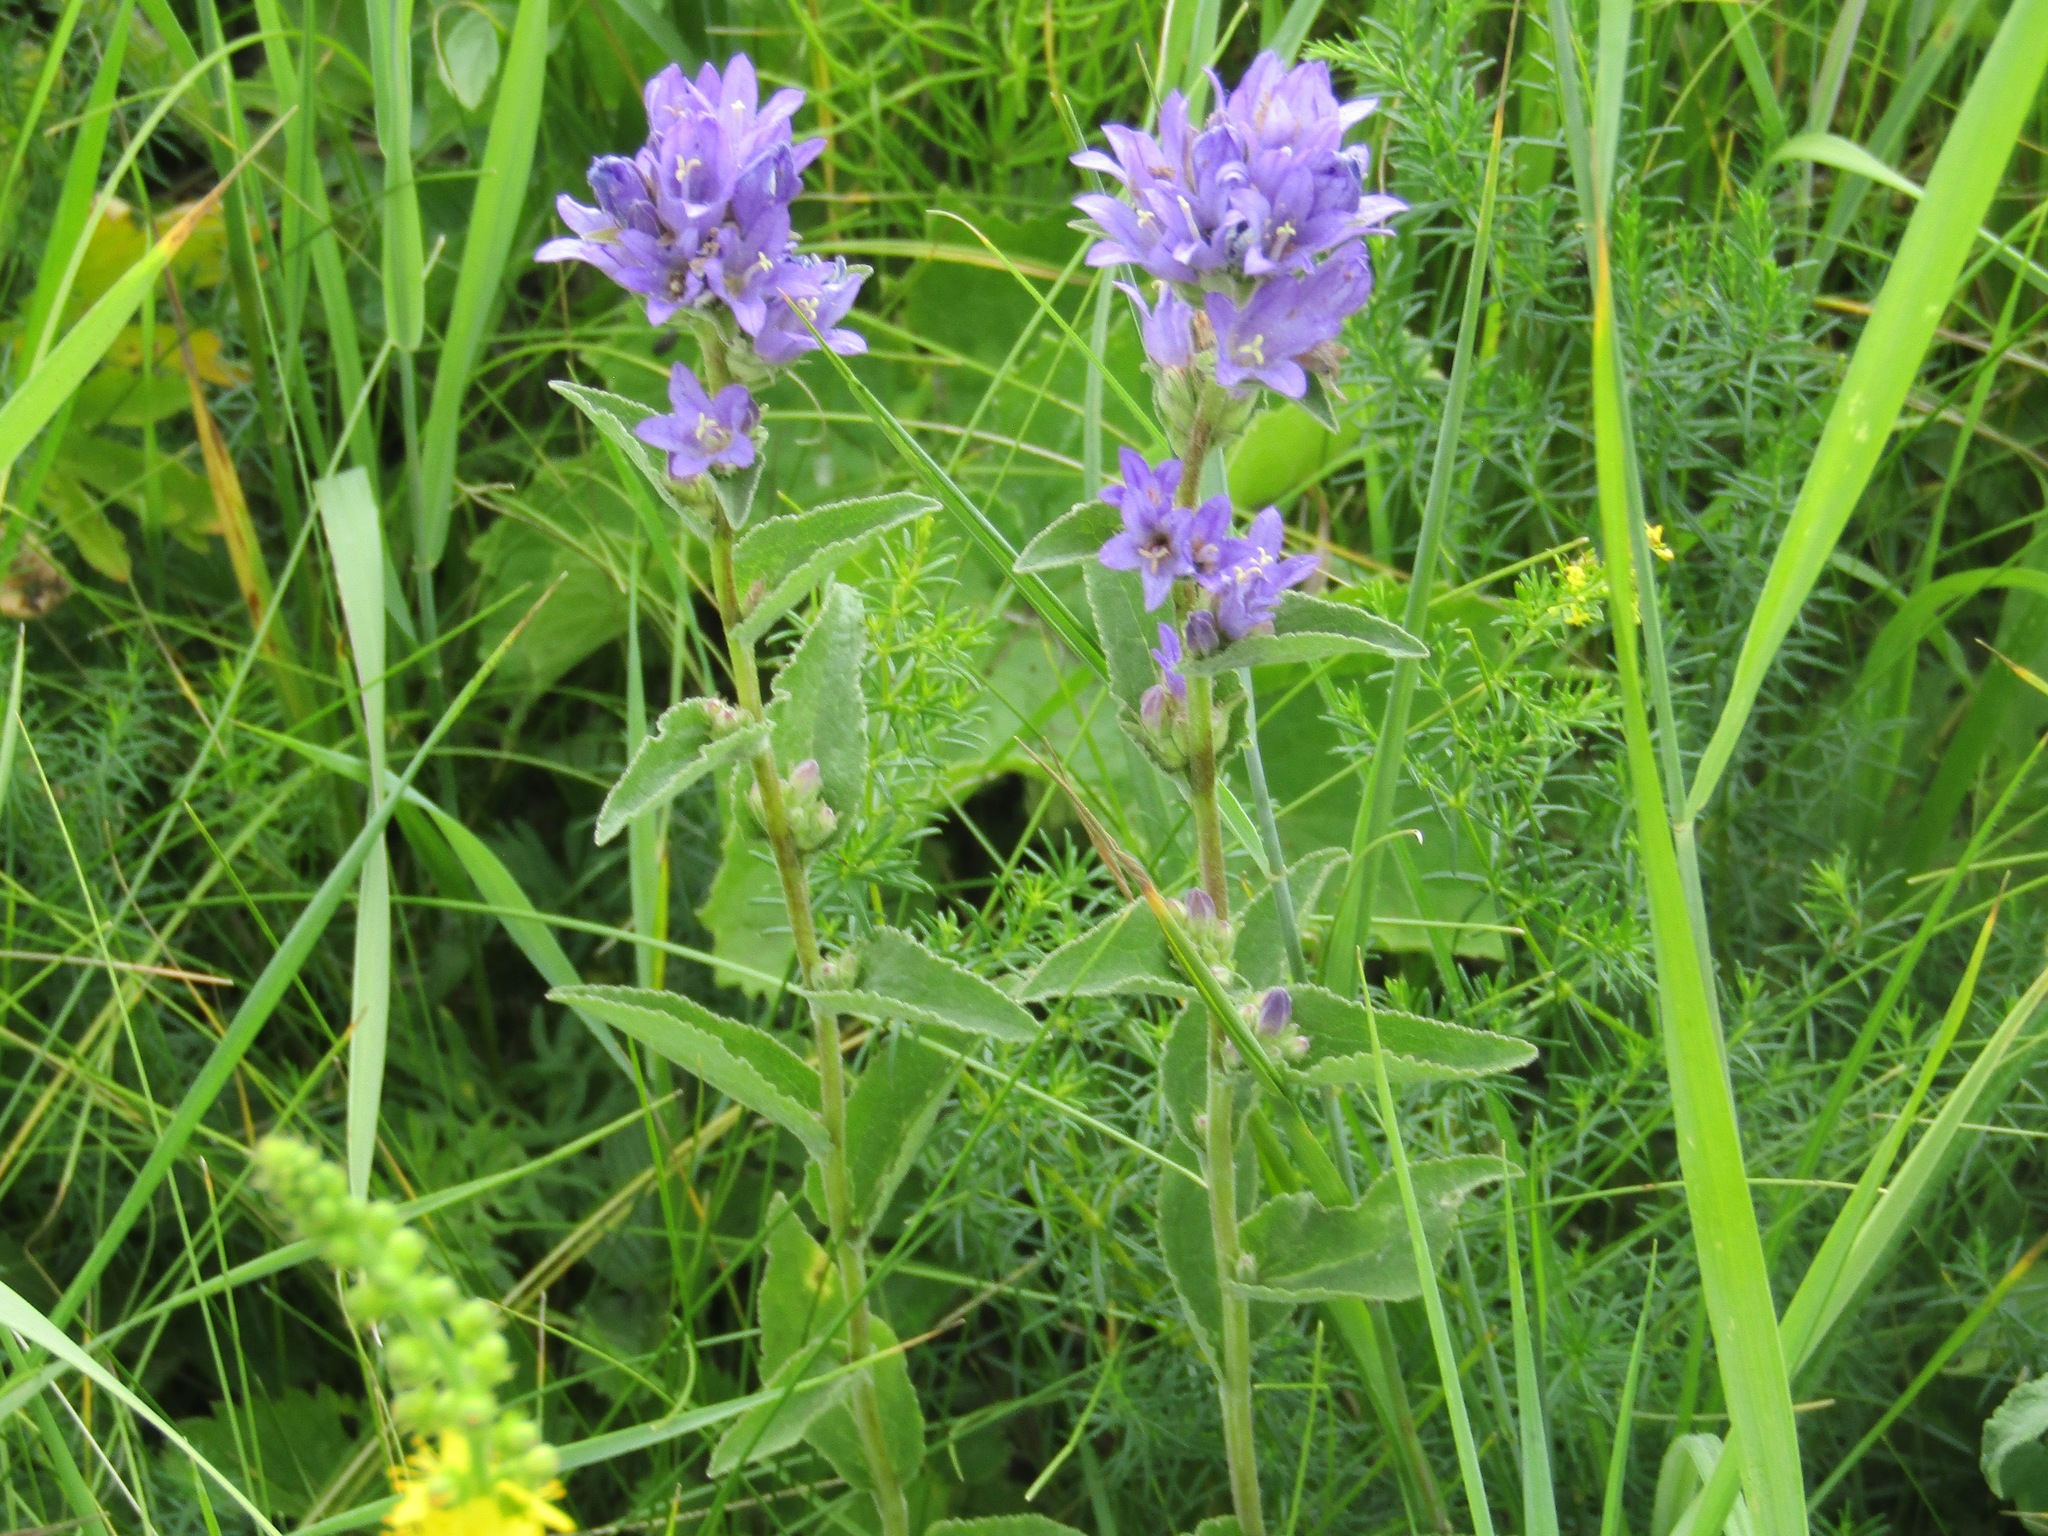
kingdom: Plantae
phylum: Tracheophyta
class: Magnoliopsida
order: Asterales
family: Campanulaceae
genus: Campanula
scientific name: Campanula glomerata
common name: Clustered bellflower
